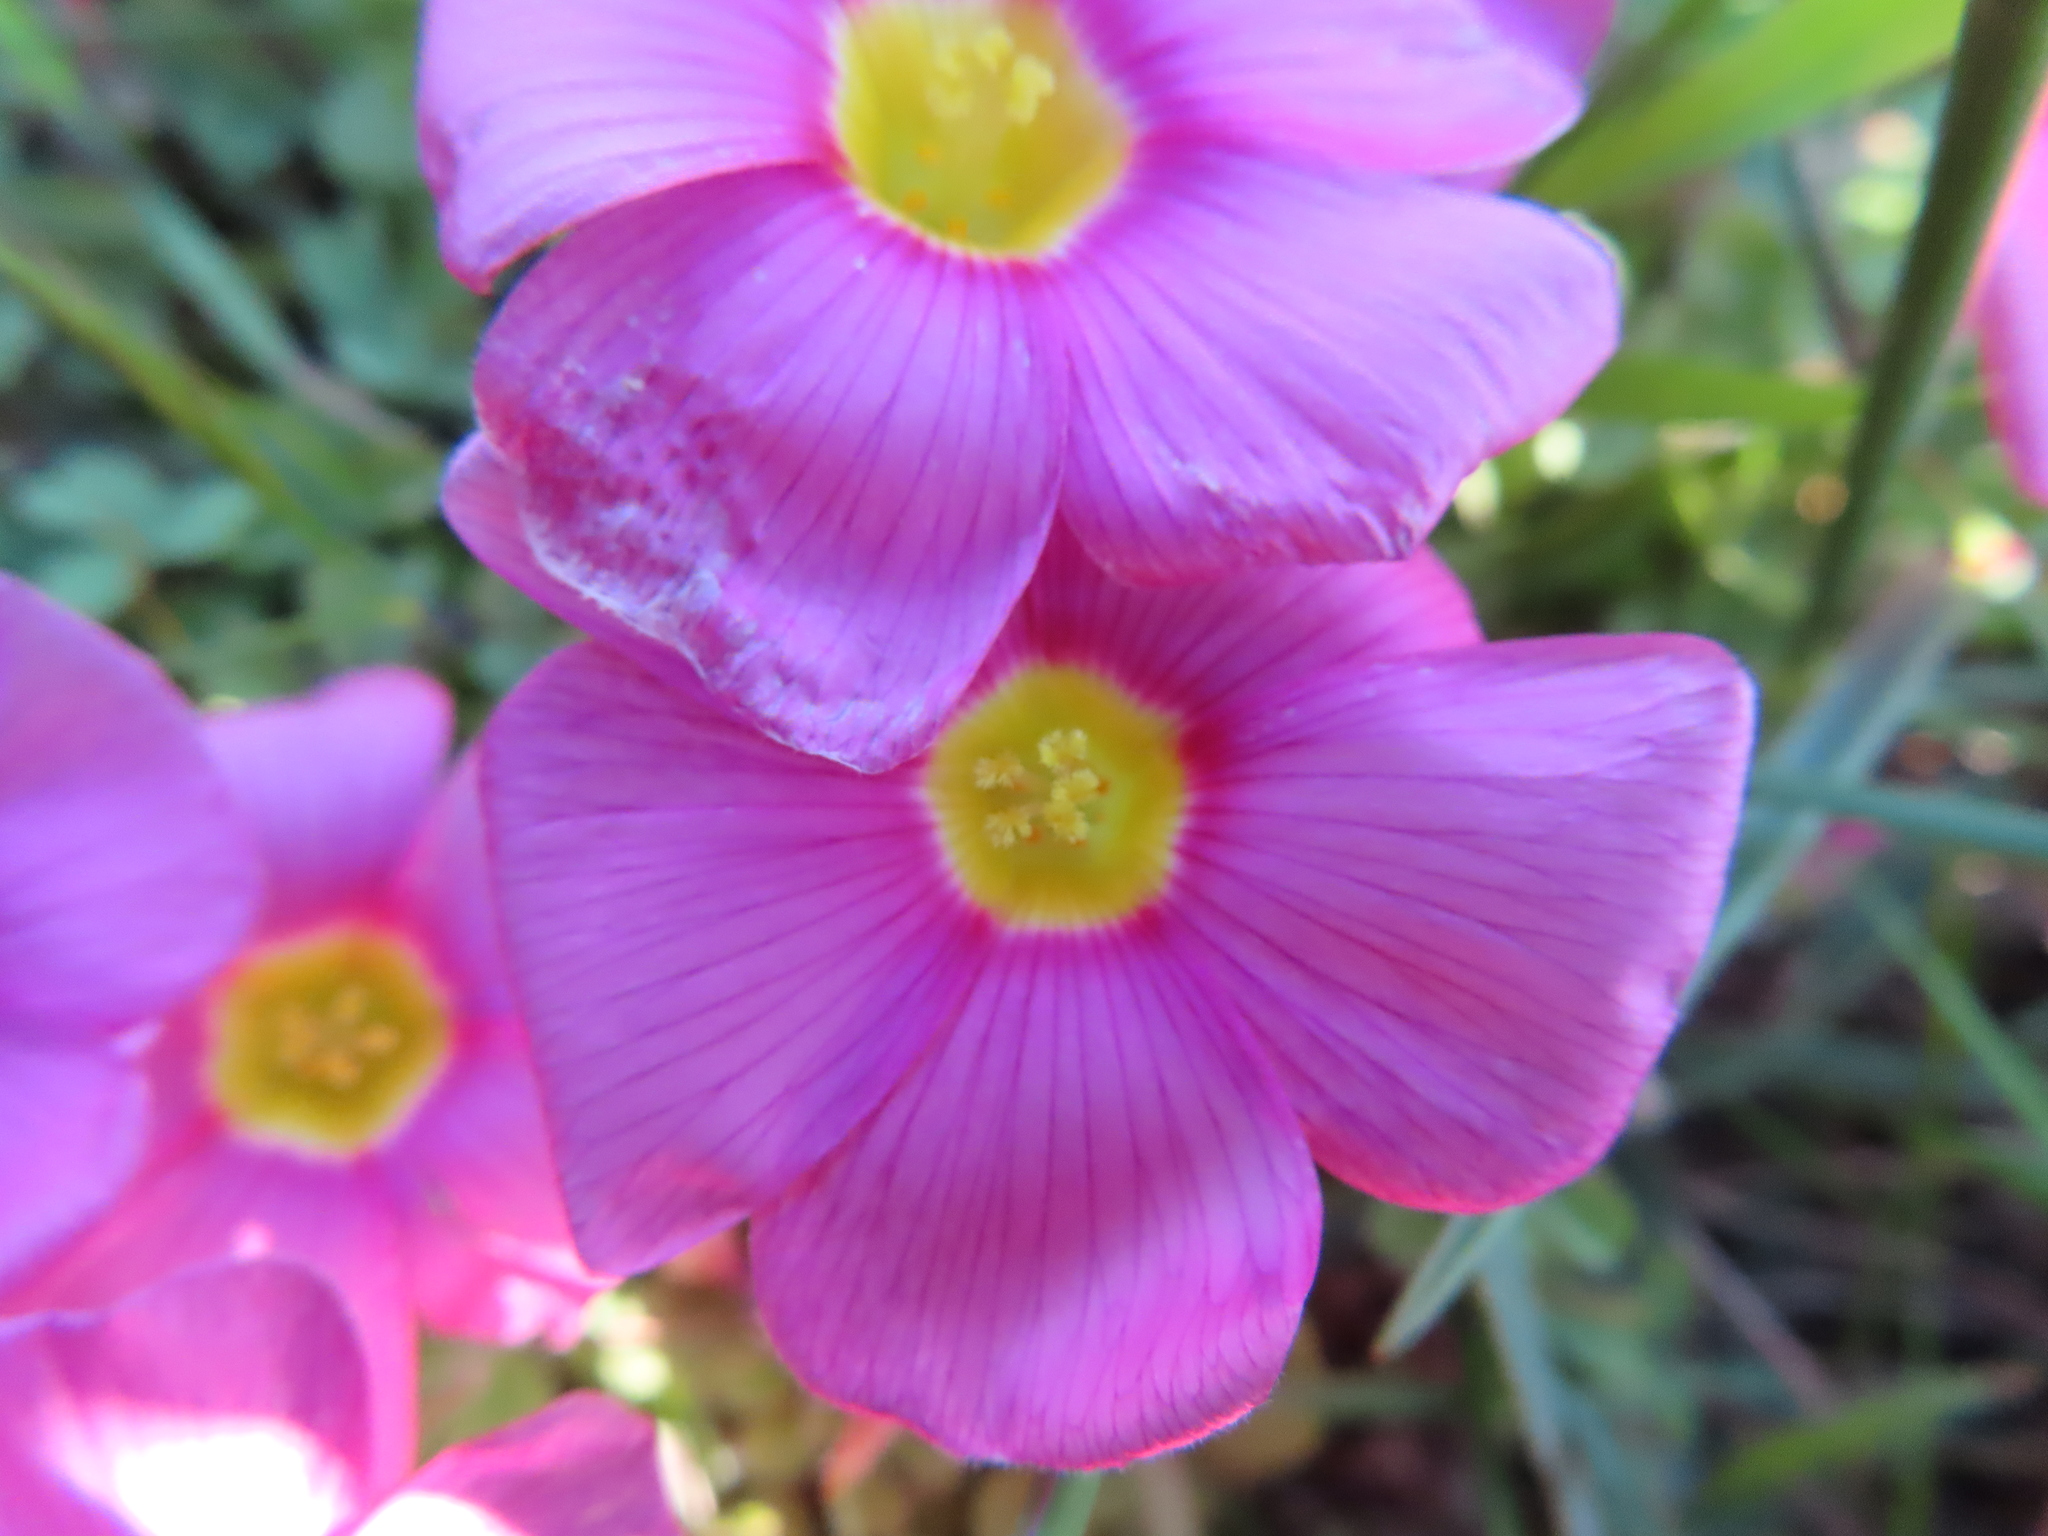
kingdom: Plantae
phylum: Tracheophyta
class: Magnoliopsida
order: Oxalidales
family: Oxalidaceae
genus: Oxalis
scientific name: Oxalis obtusa
